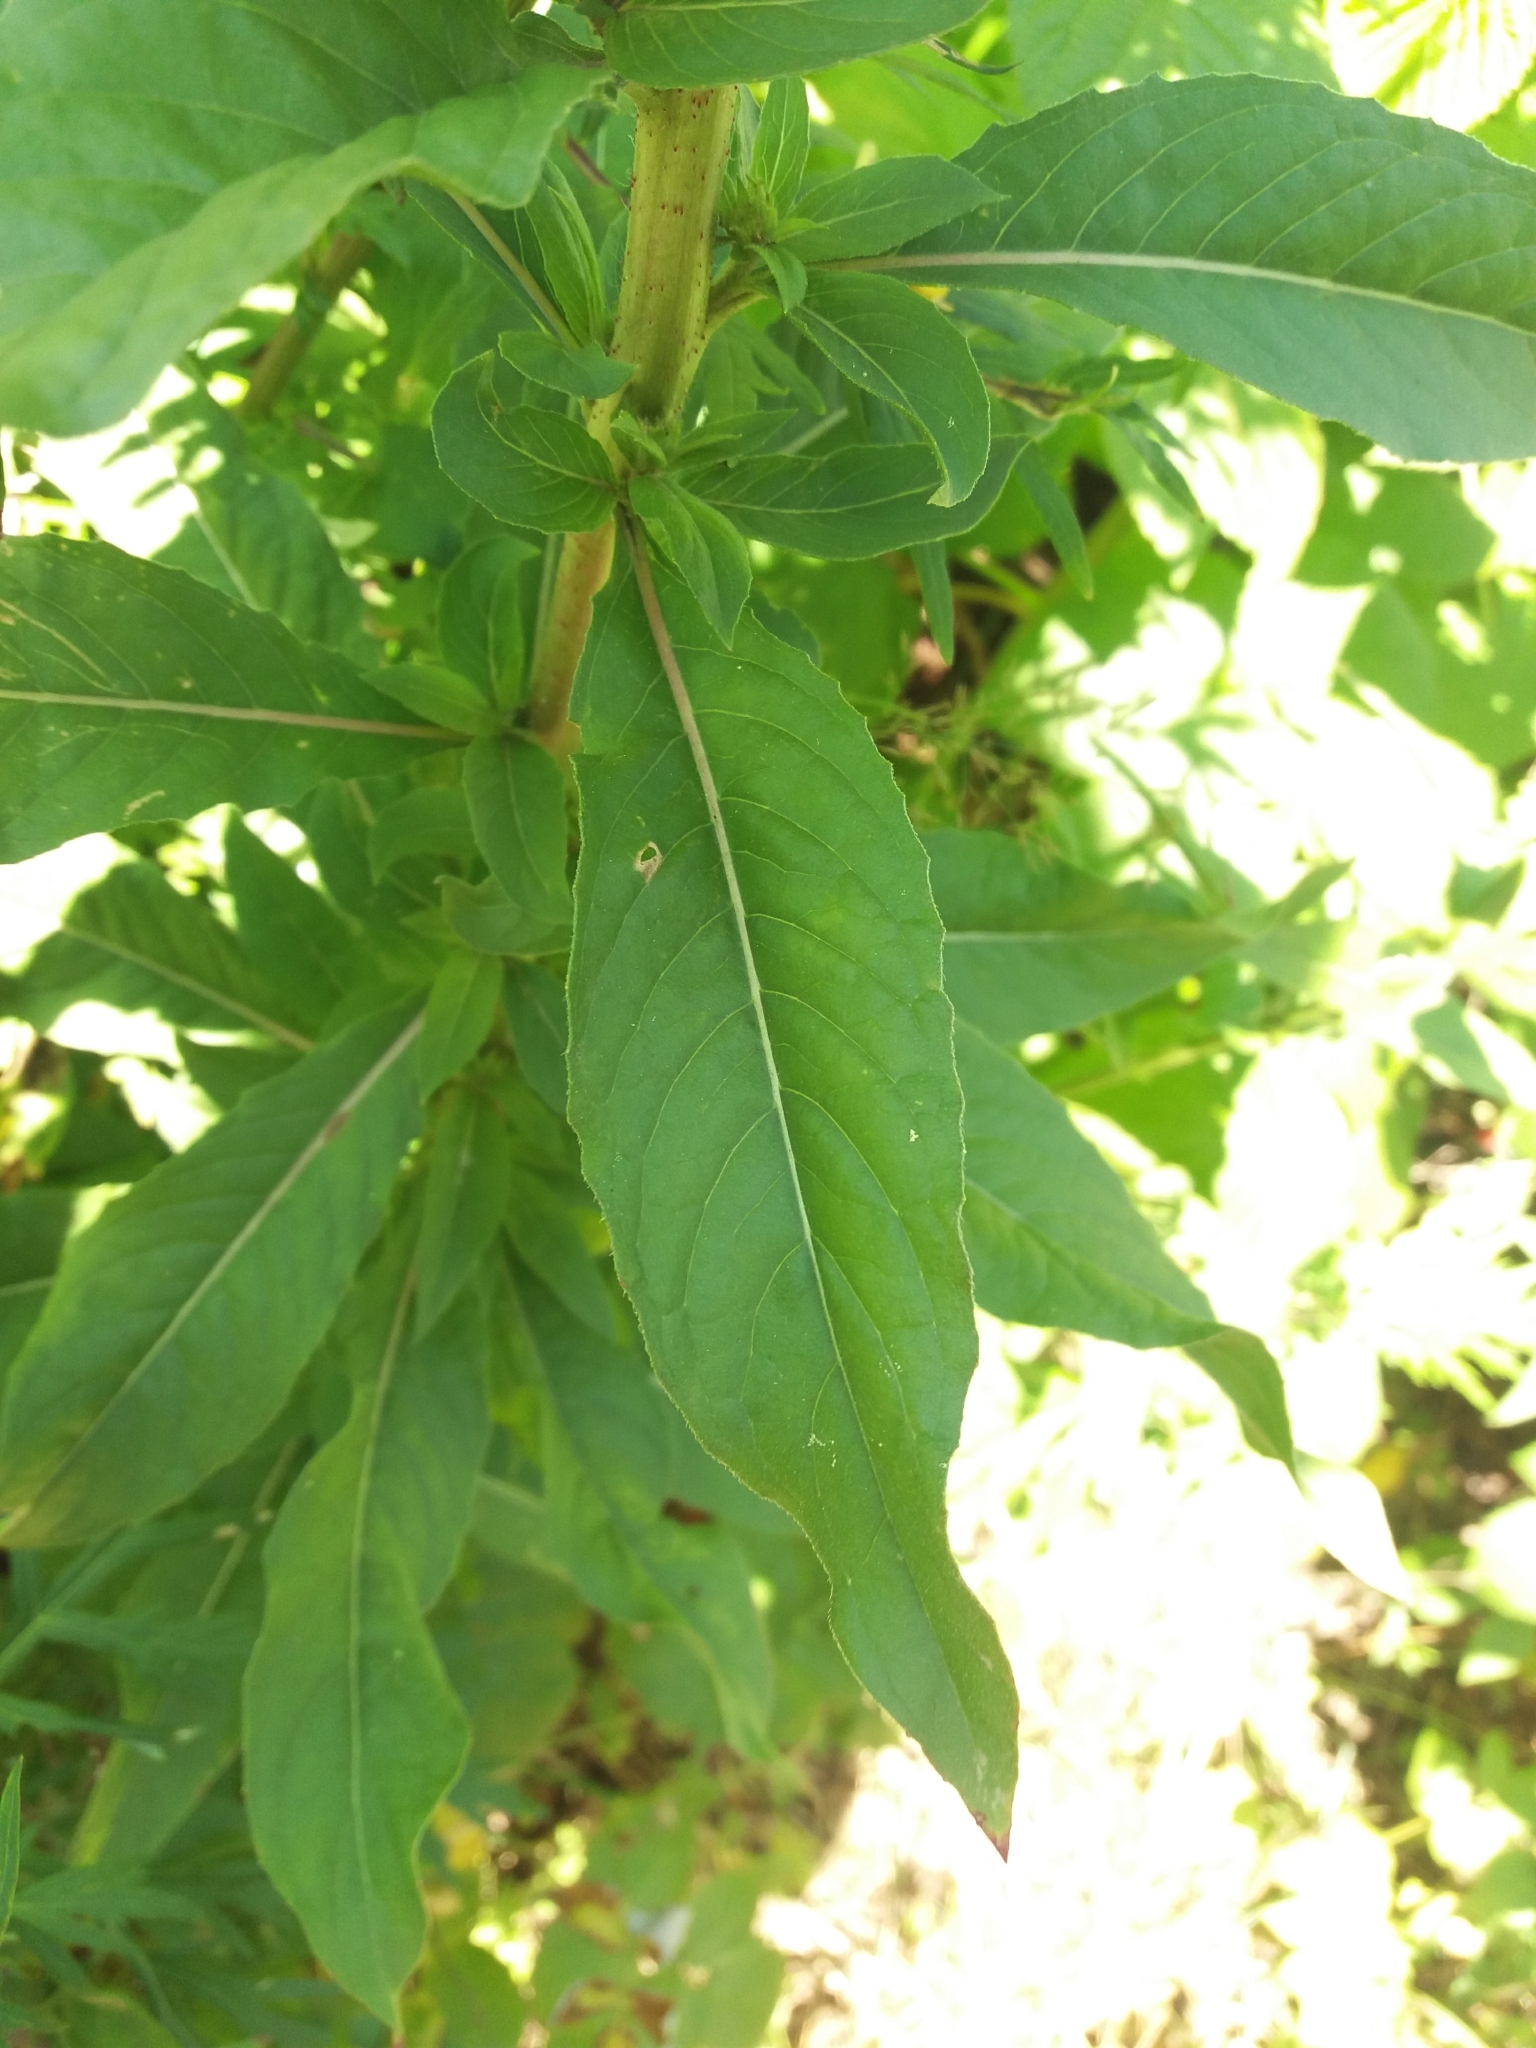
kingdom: Plantae
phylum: Tracheophyta
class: Magnoliopsida
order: Myrtales
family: Onagraceae
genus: Oenothera
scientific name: Oenothera rubricaulis
